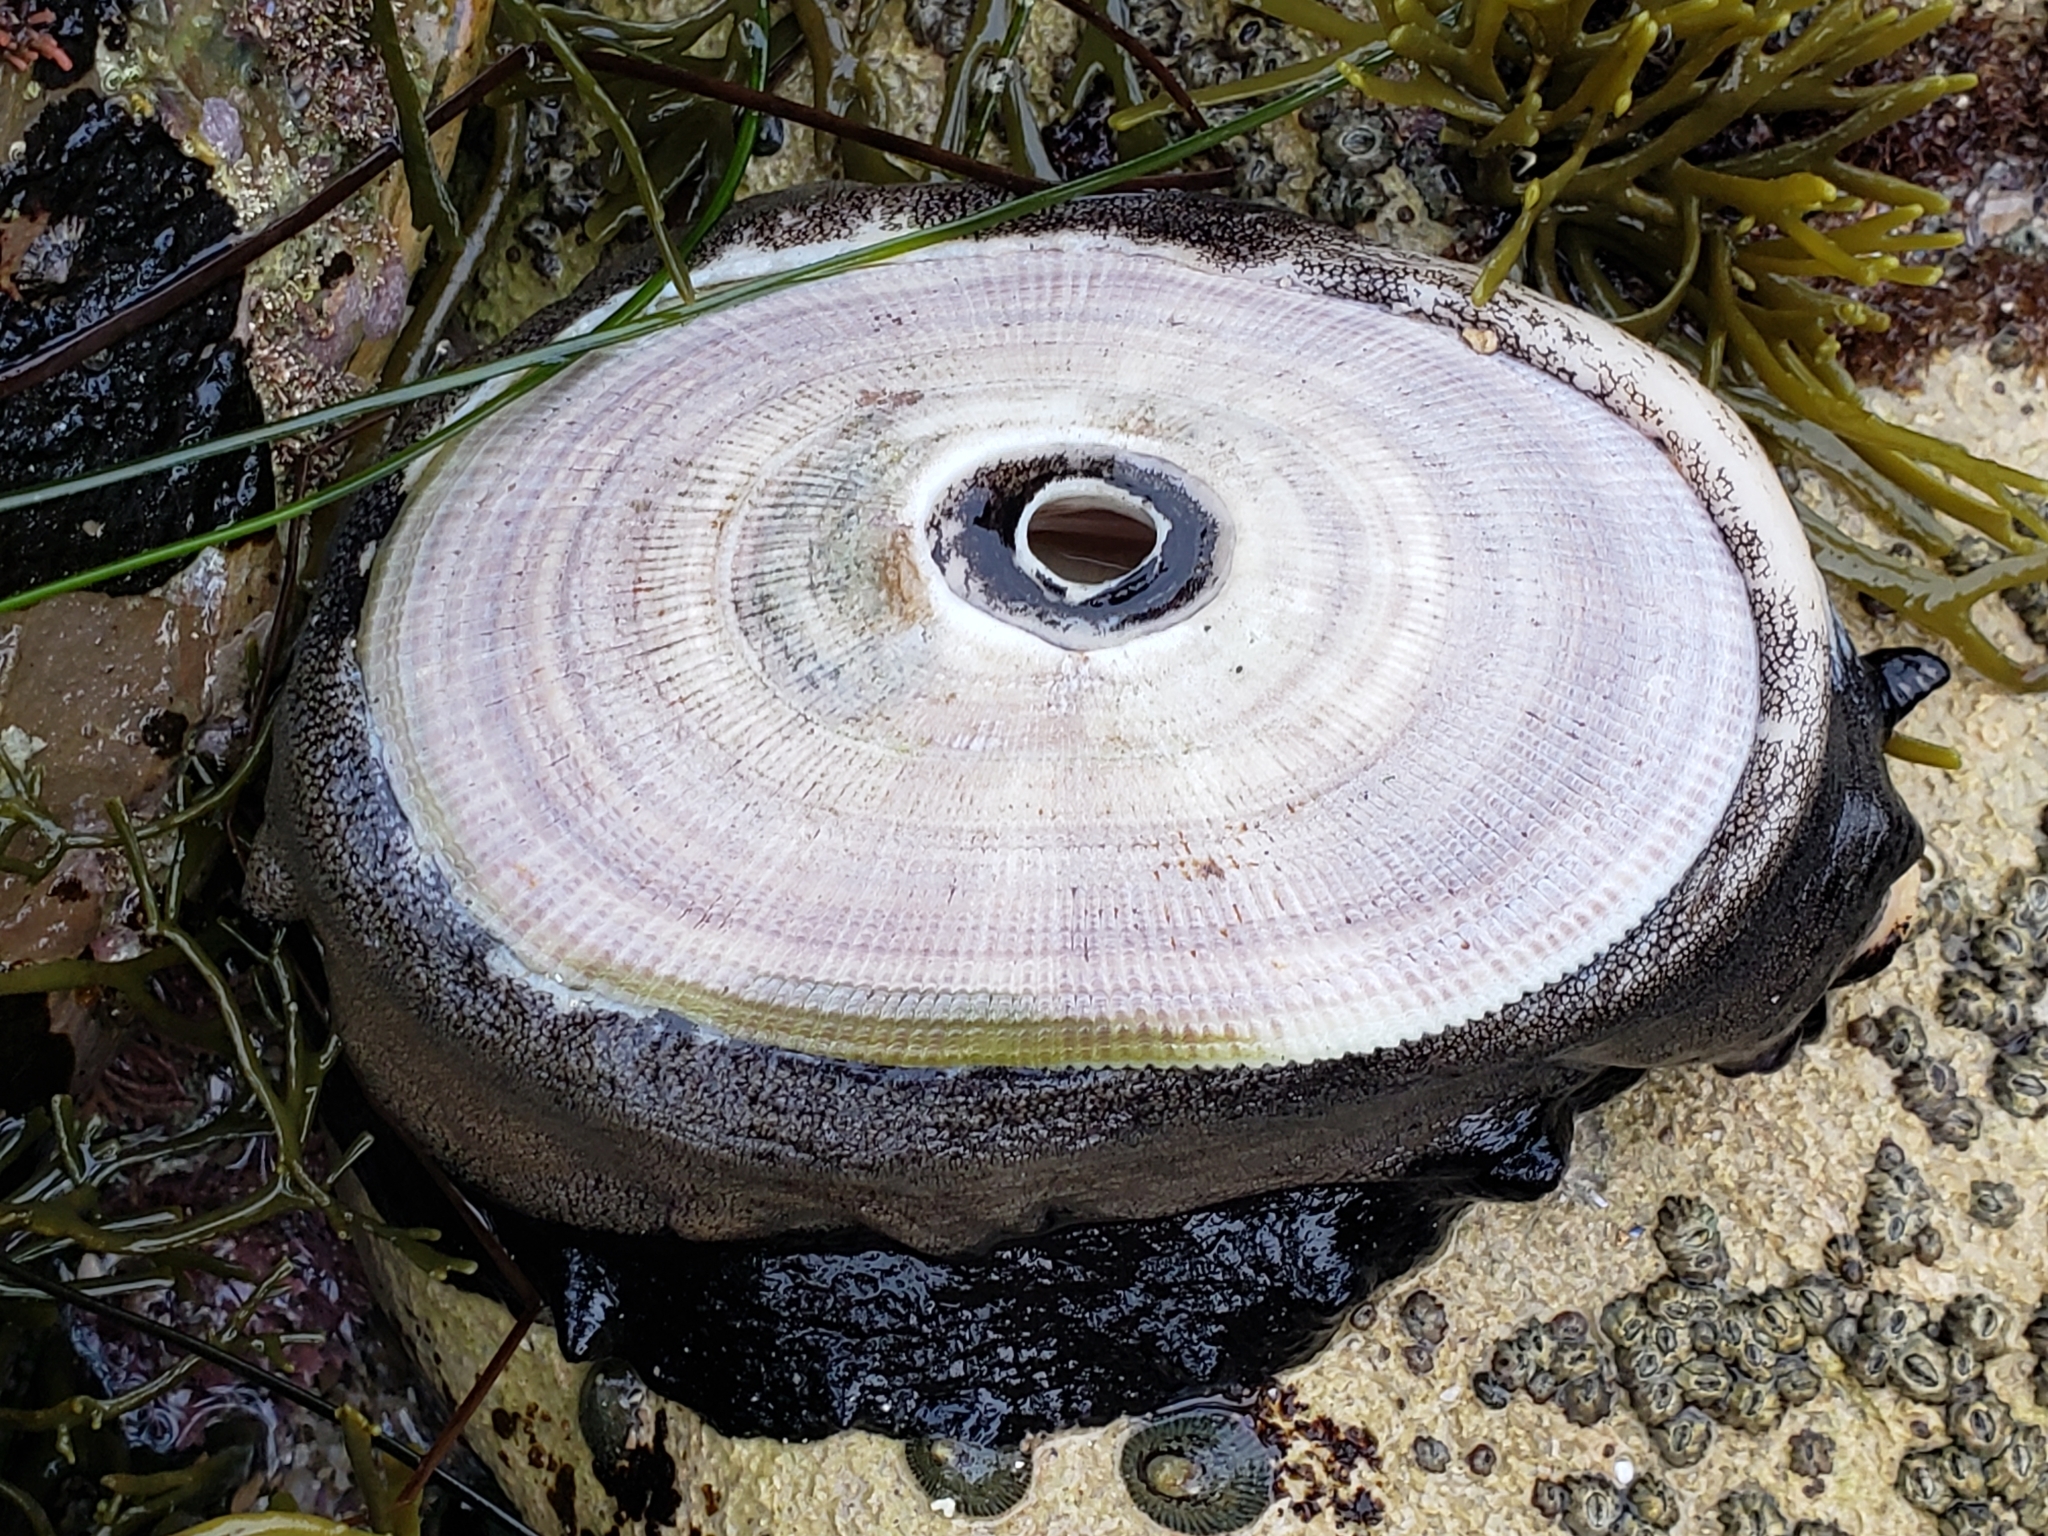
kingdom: Animalia
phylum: Mollusca
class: Gastropoda
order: Lepetellida
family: Fissurellidae
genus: Megathura
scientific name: Megathura crenulata
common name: Giant keyhole limpet
